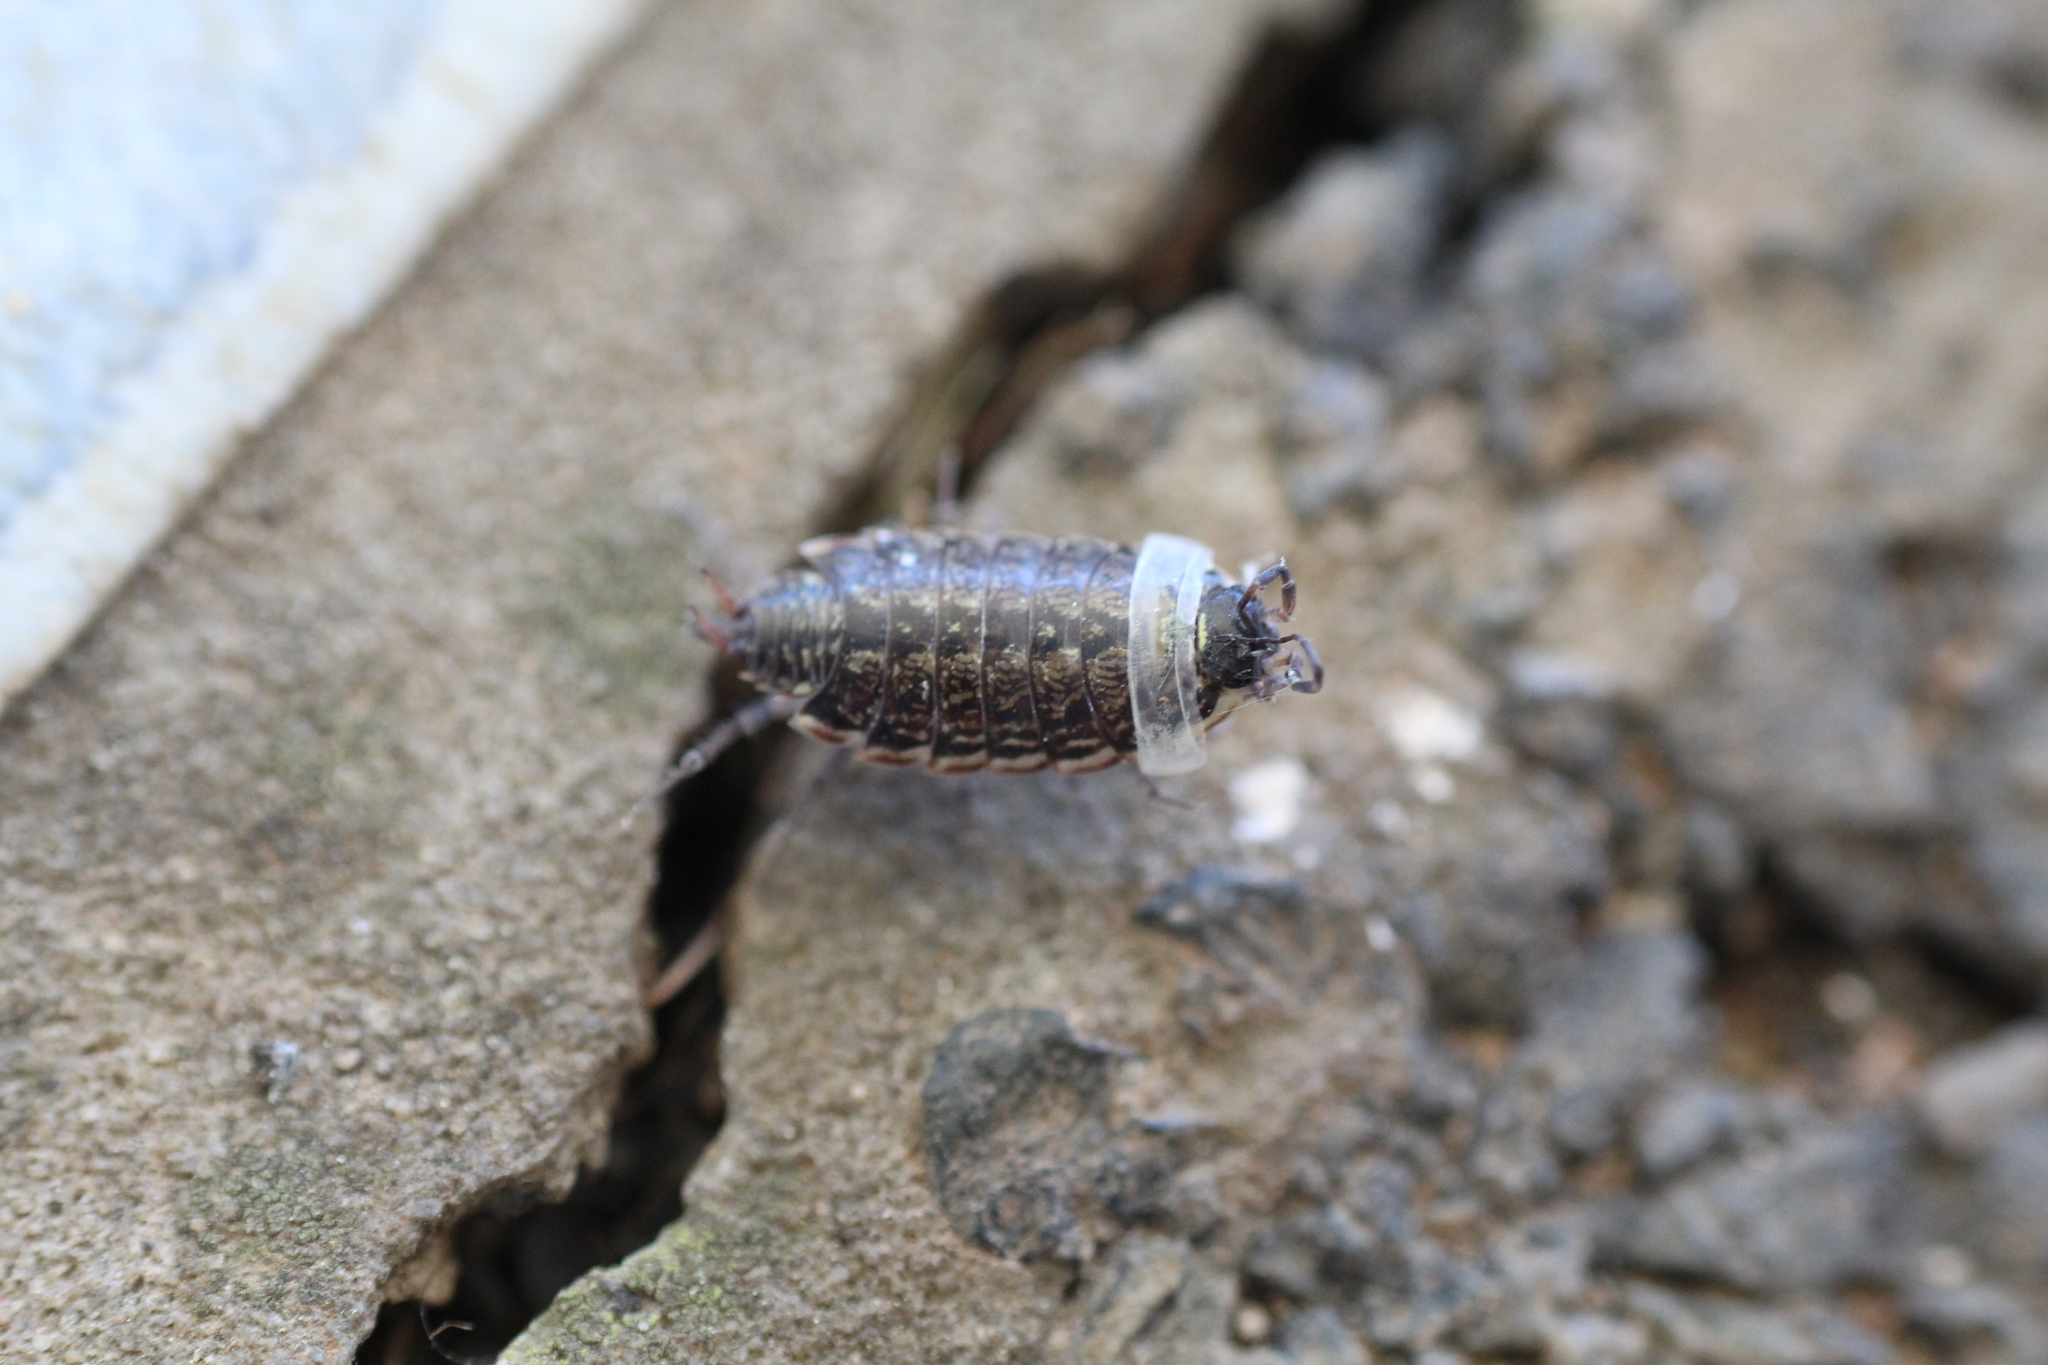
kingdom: Animalia
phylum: Arthropoda
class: Malacostraca
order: Isopoda
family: Philosciidae
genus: Philoscia
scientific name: Philoscia muscorum
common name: Common striped woodlouse
